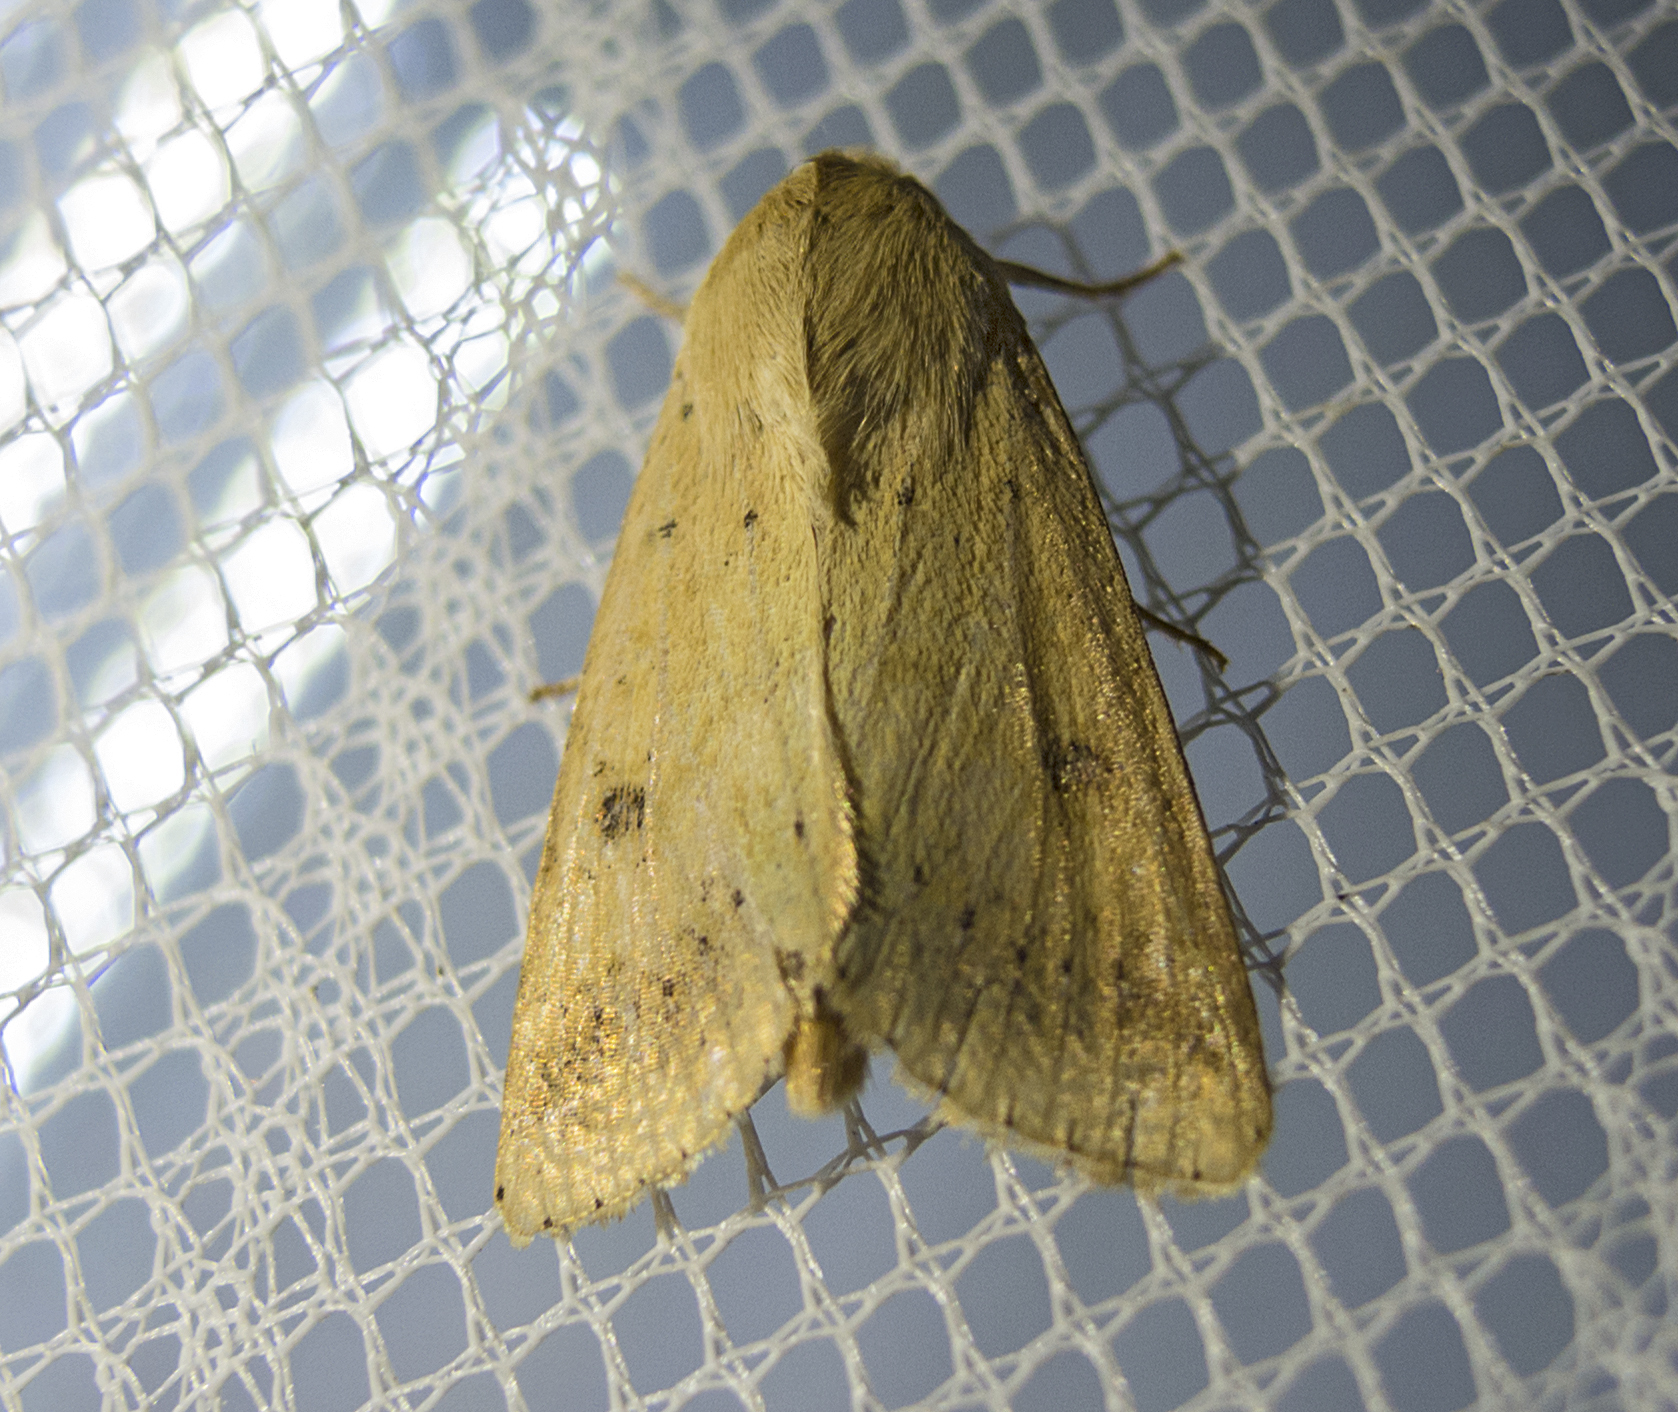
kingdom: Animalia
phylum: Arthropoda
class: Insecta
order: Lepidoptera
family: Noctuidae
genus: Helicoverpa
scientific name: Helicoverpa armigera
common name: Cotton bollworm
